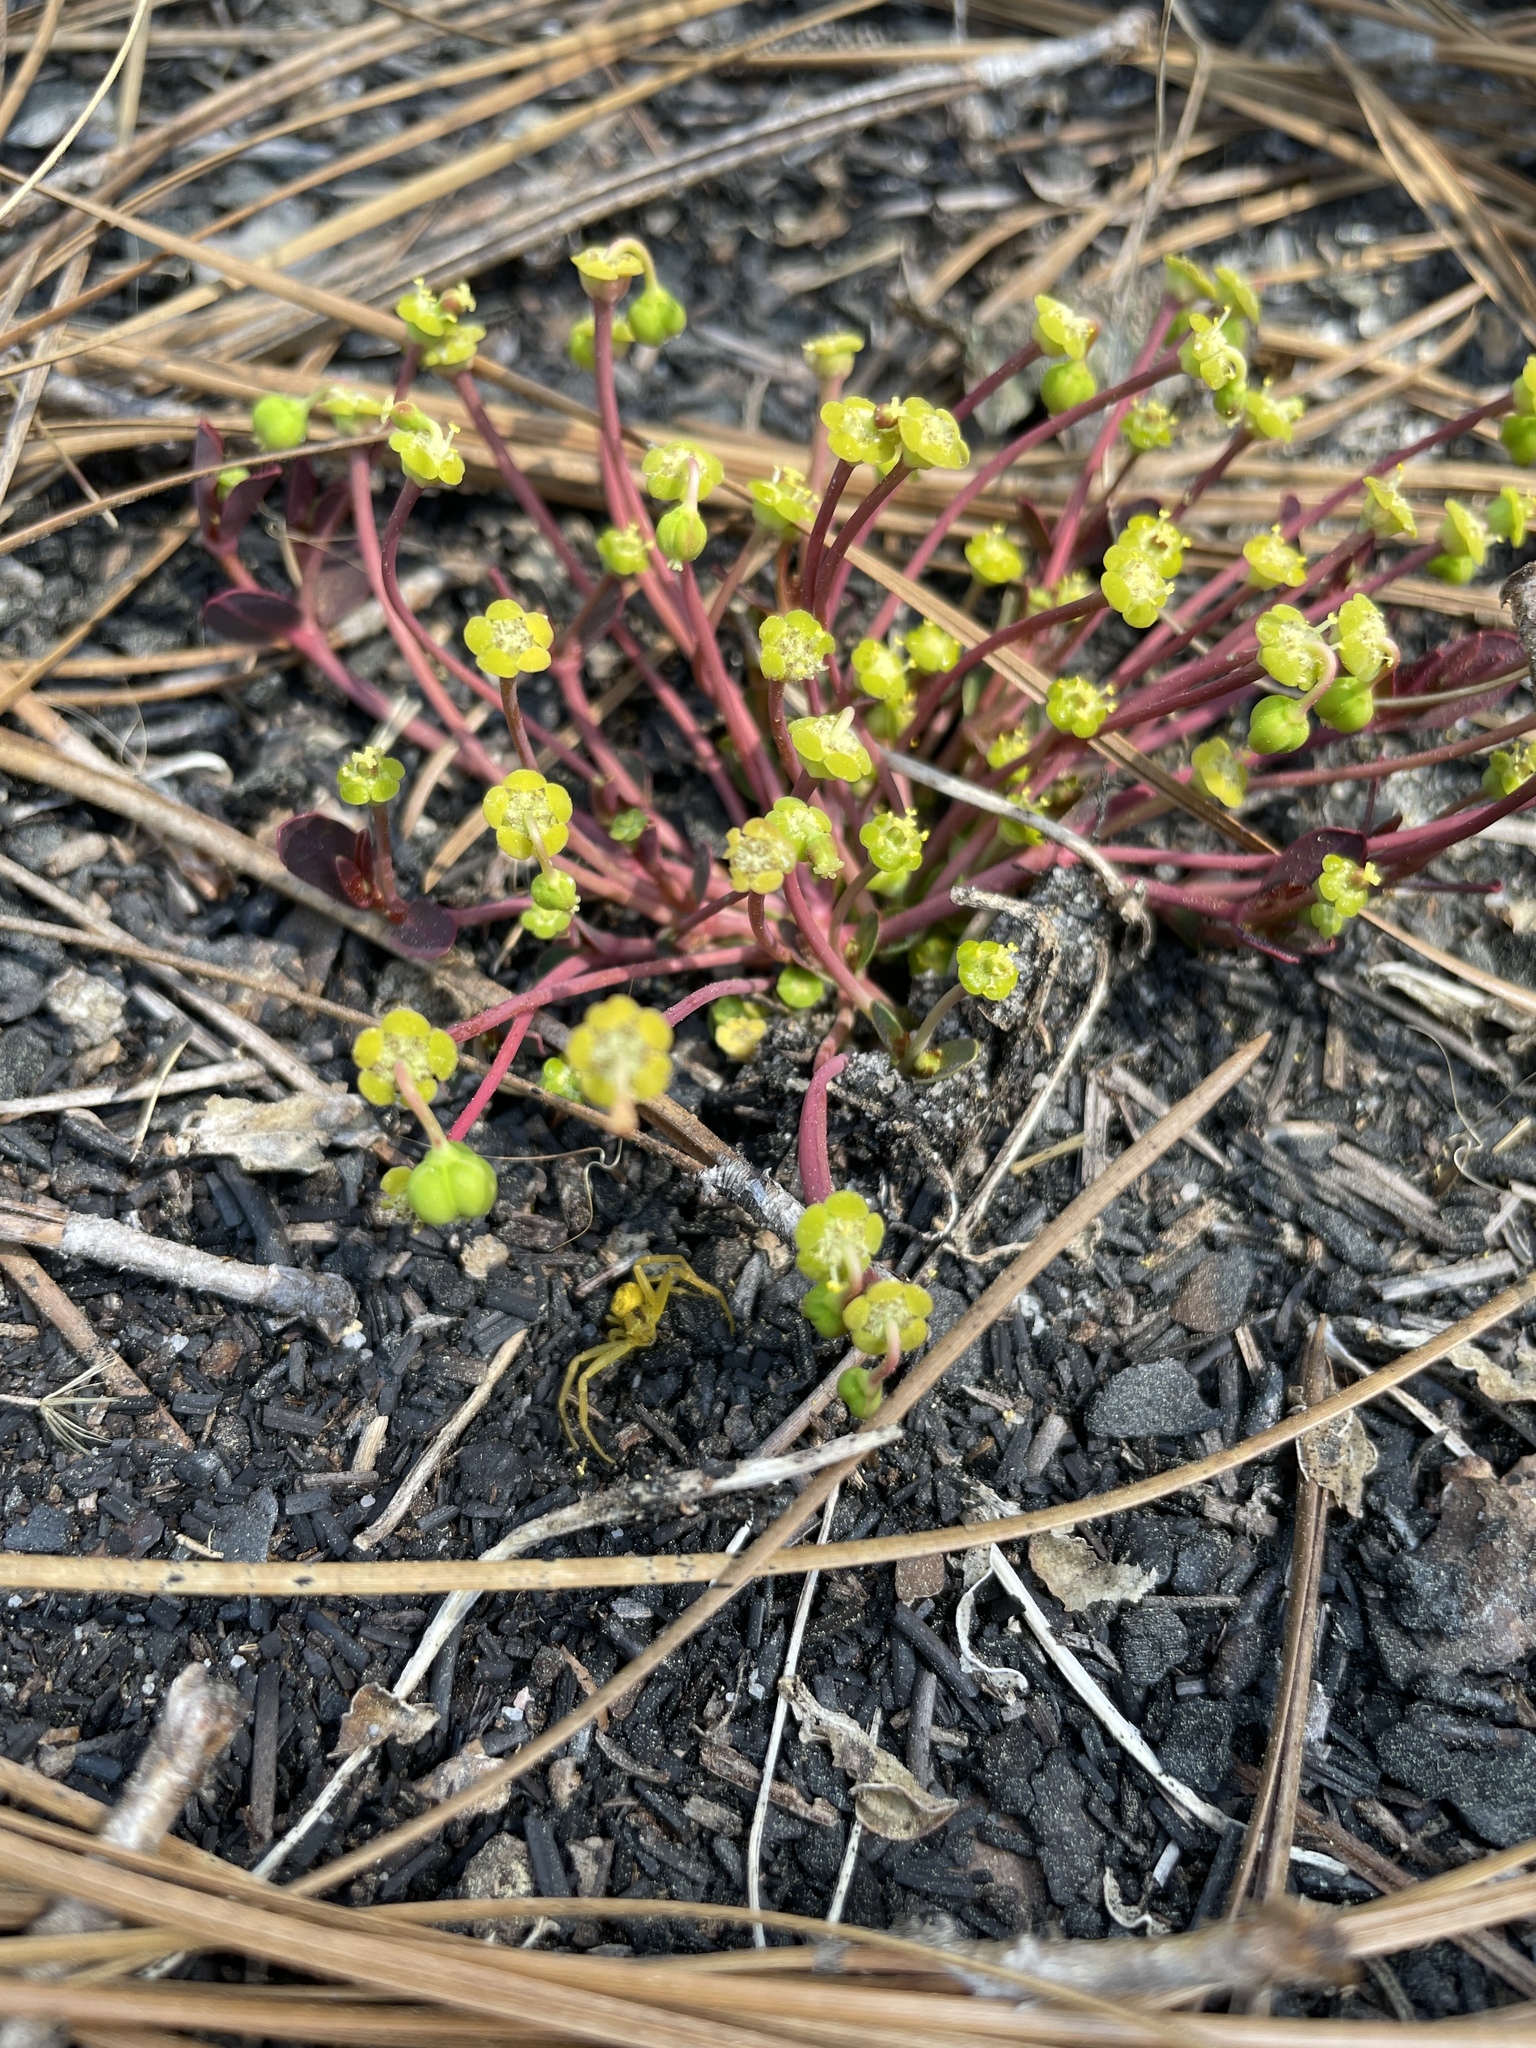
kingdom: Plantae
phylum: Tracheophyta
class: Magnoliopsida
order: Malpighiales
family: Euphorbiaceae
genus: Euphorbia
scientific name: Euphorbia ipecacuanhae
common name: Carolina ipecac
